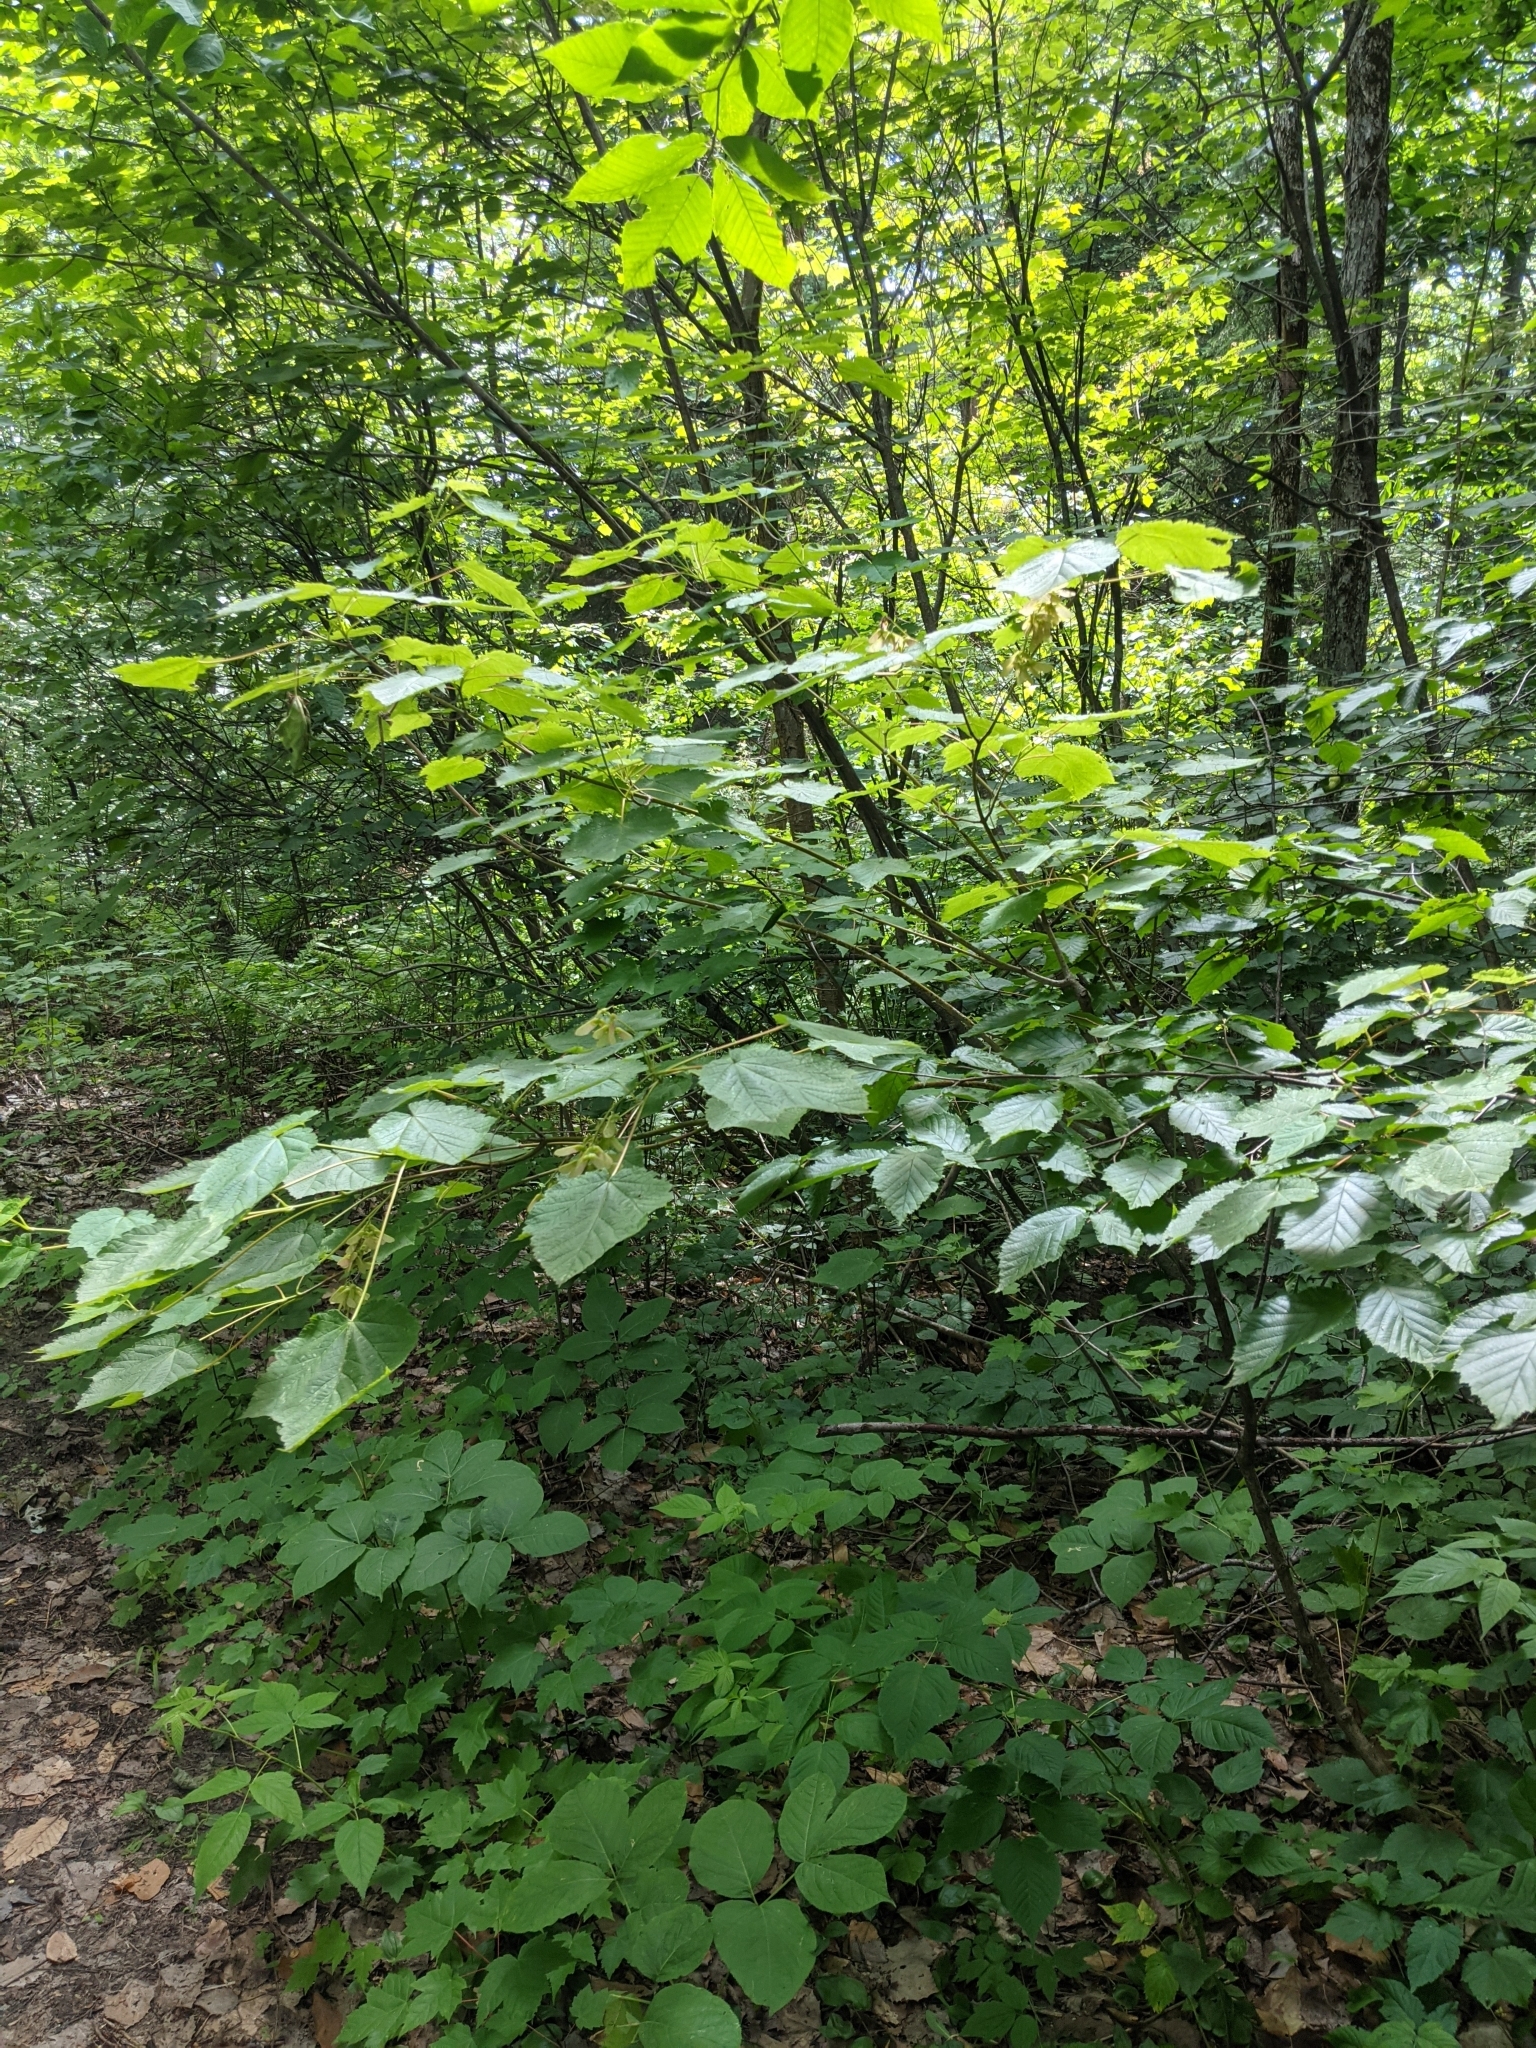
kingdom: Plantae
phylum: Tracheophyta
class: Magnoliopsida
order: Sapindales
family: Sapindaceae
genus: Acer
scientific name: Acer spicatum
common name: Mountain maple
